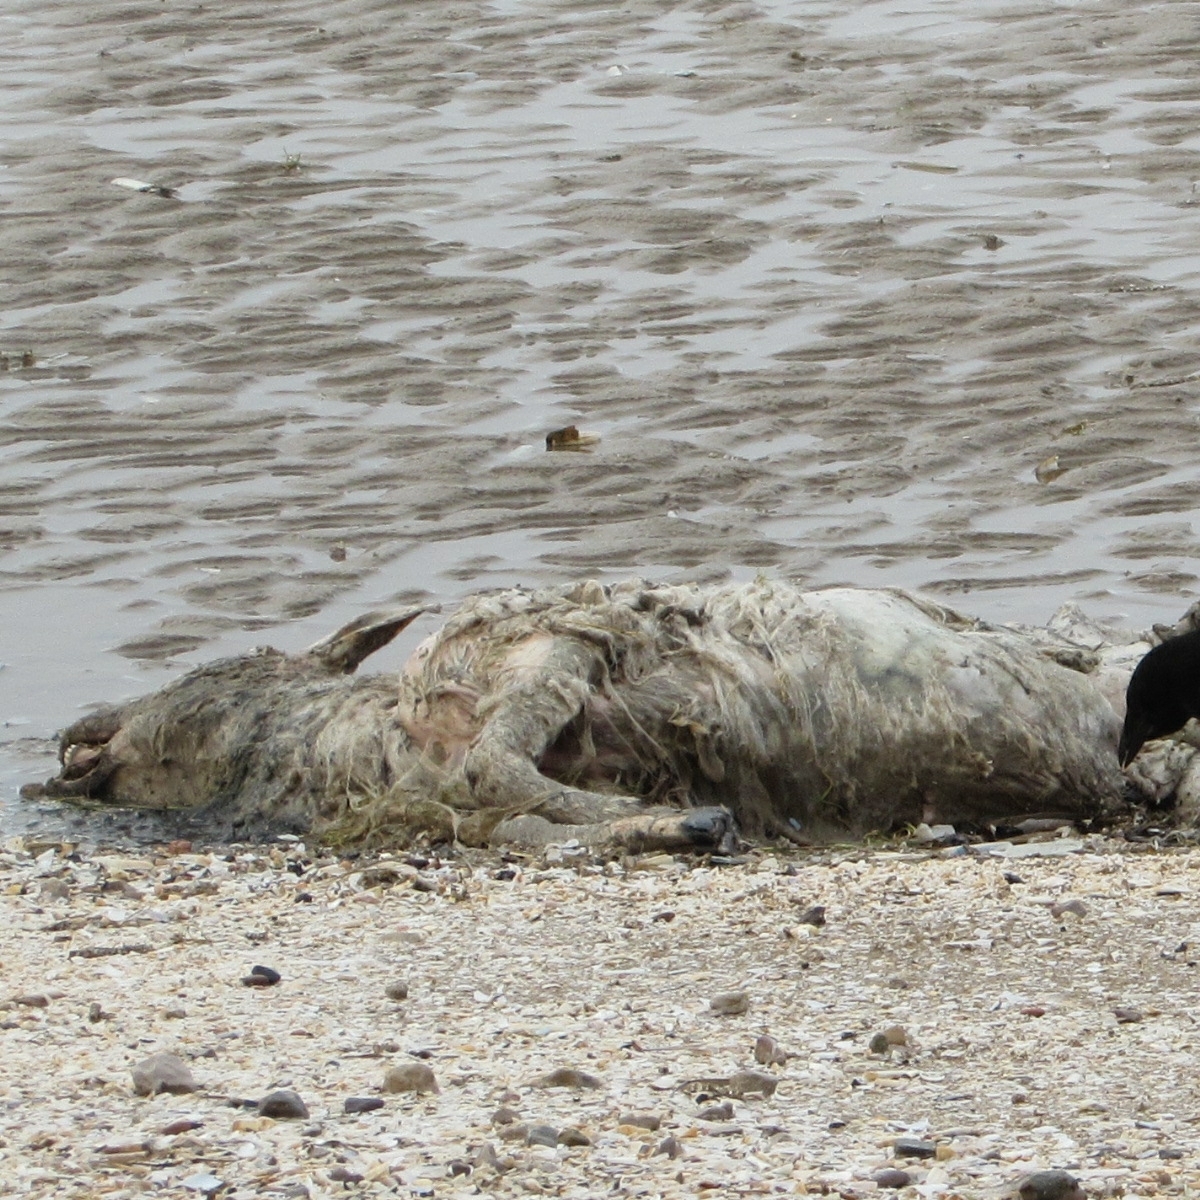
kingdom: Animalia
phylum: Chordata
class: Mammalia
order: Artiodactyla
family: Bovidae
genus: Ovis
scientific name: Ovis aries
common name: Domestic sheep
